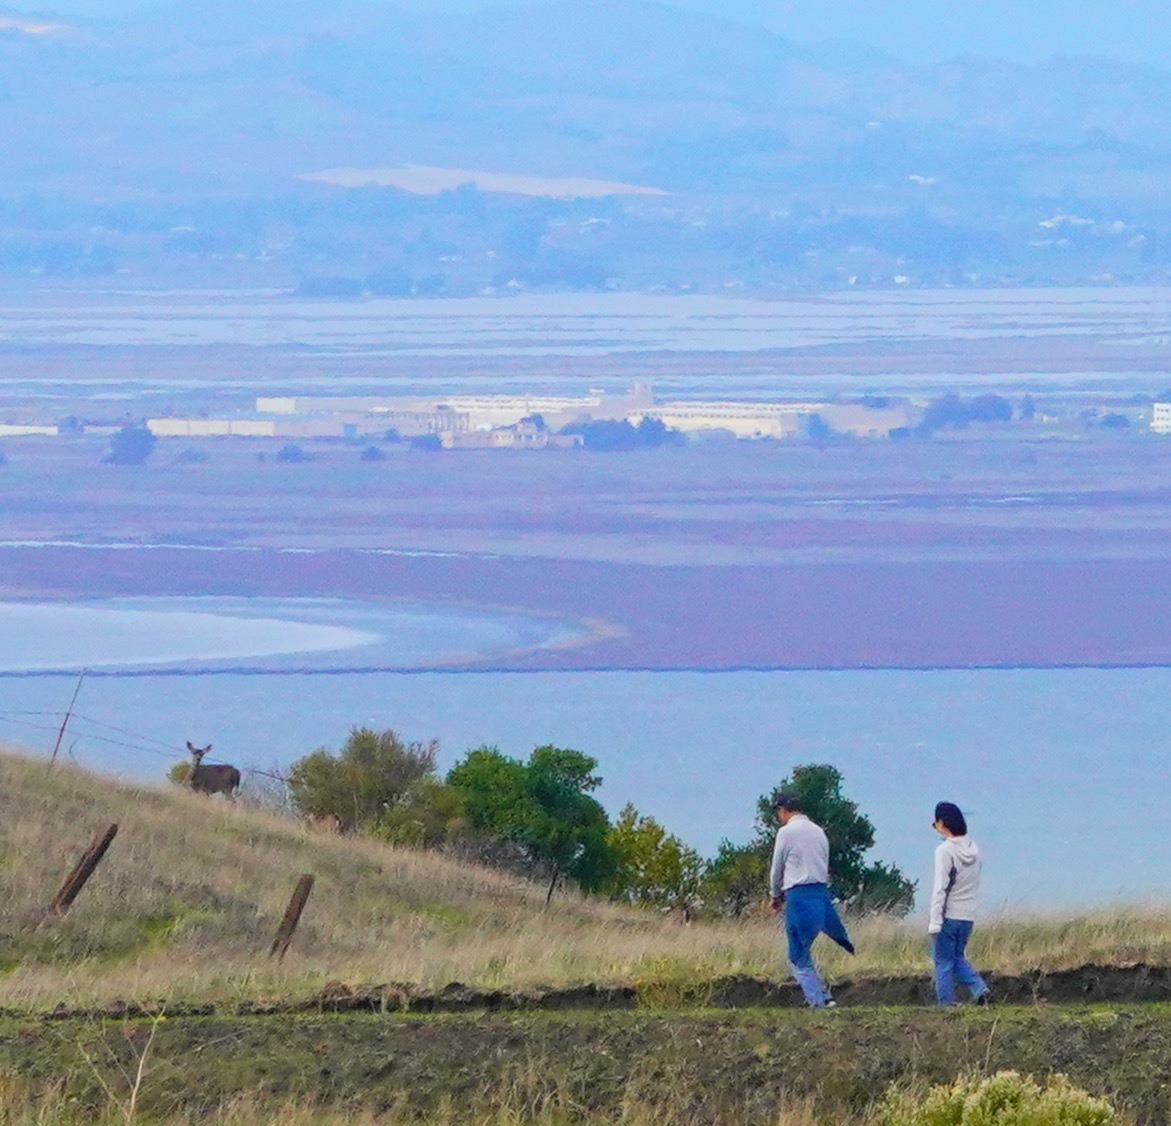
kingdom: Animalia
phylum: Chordata
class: Mammalia
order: Artiodactyla
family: Cervidae
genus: Odocoileus
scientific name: Odocoileus hemionus
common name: Mule deer
